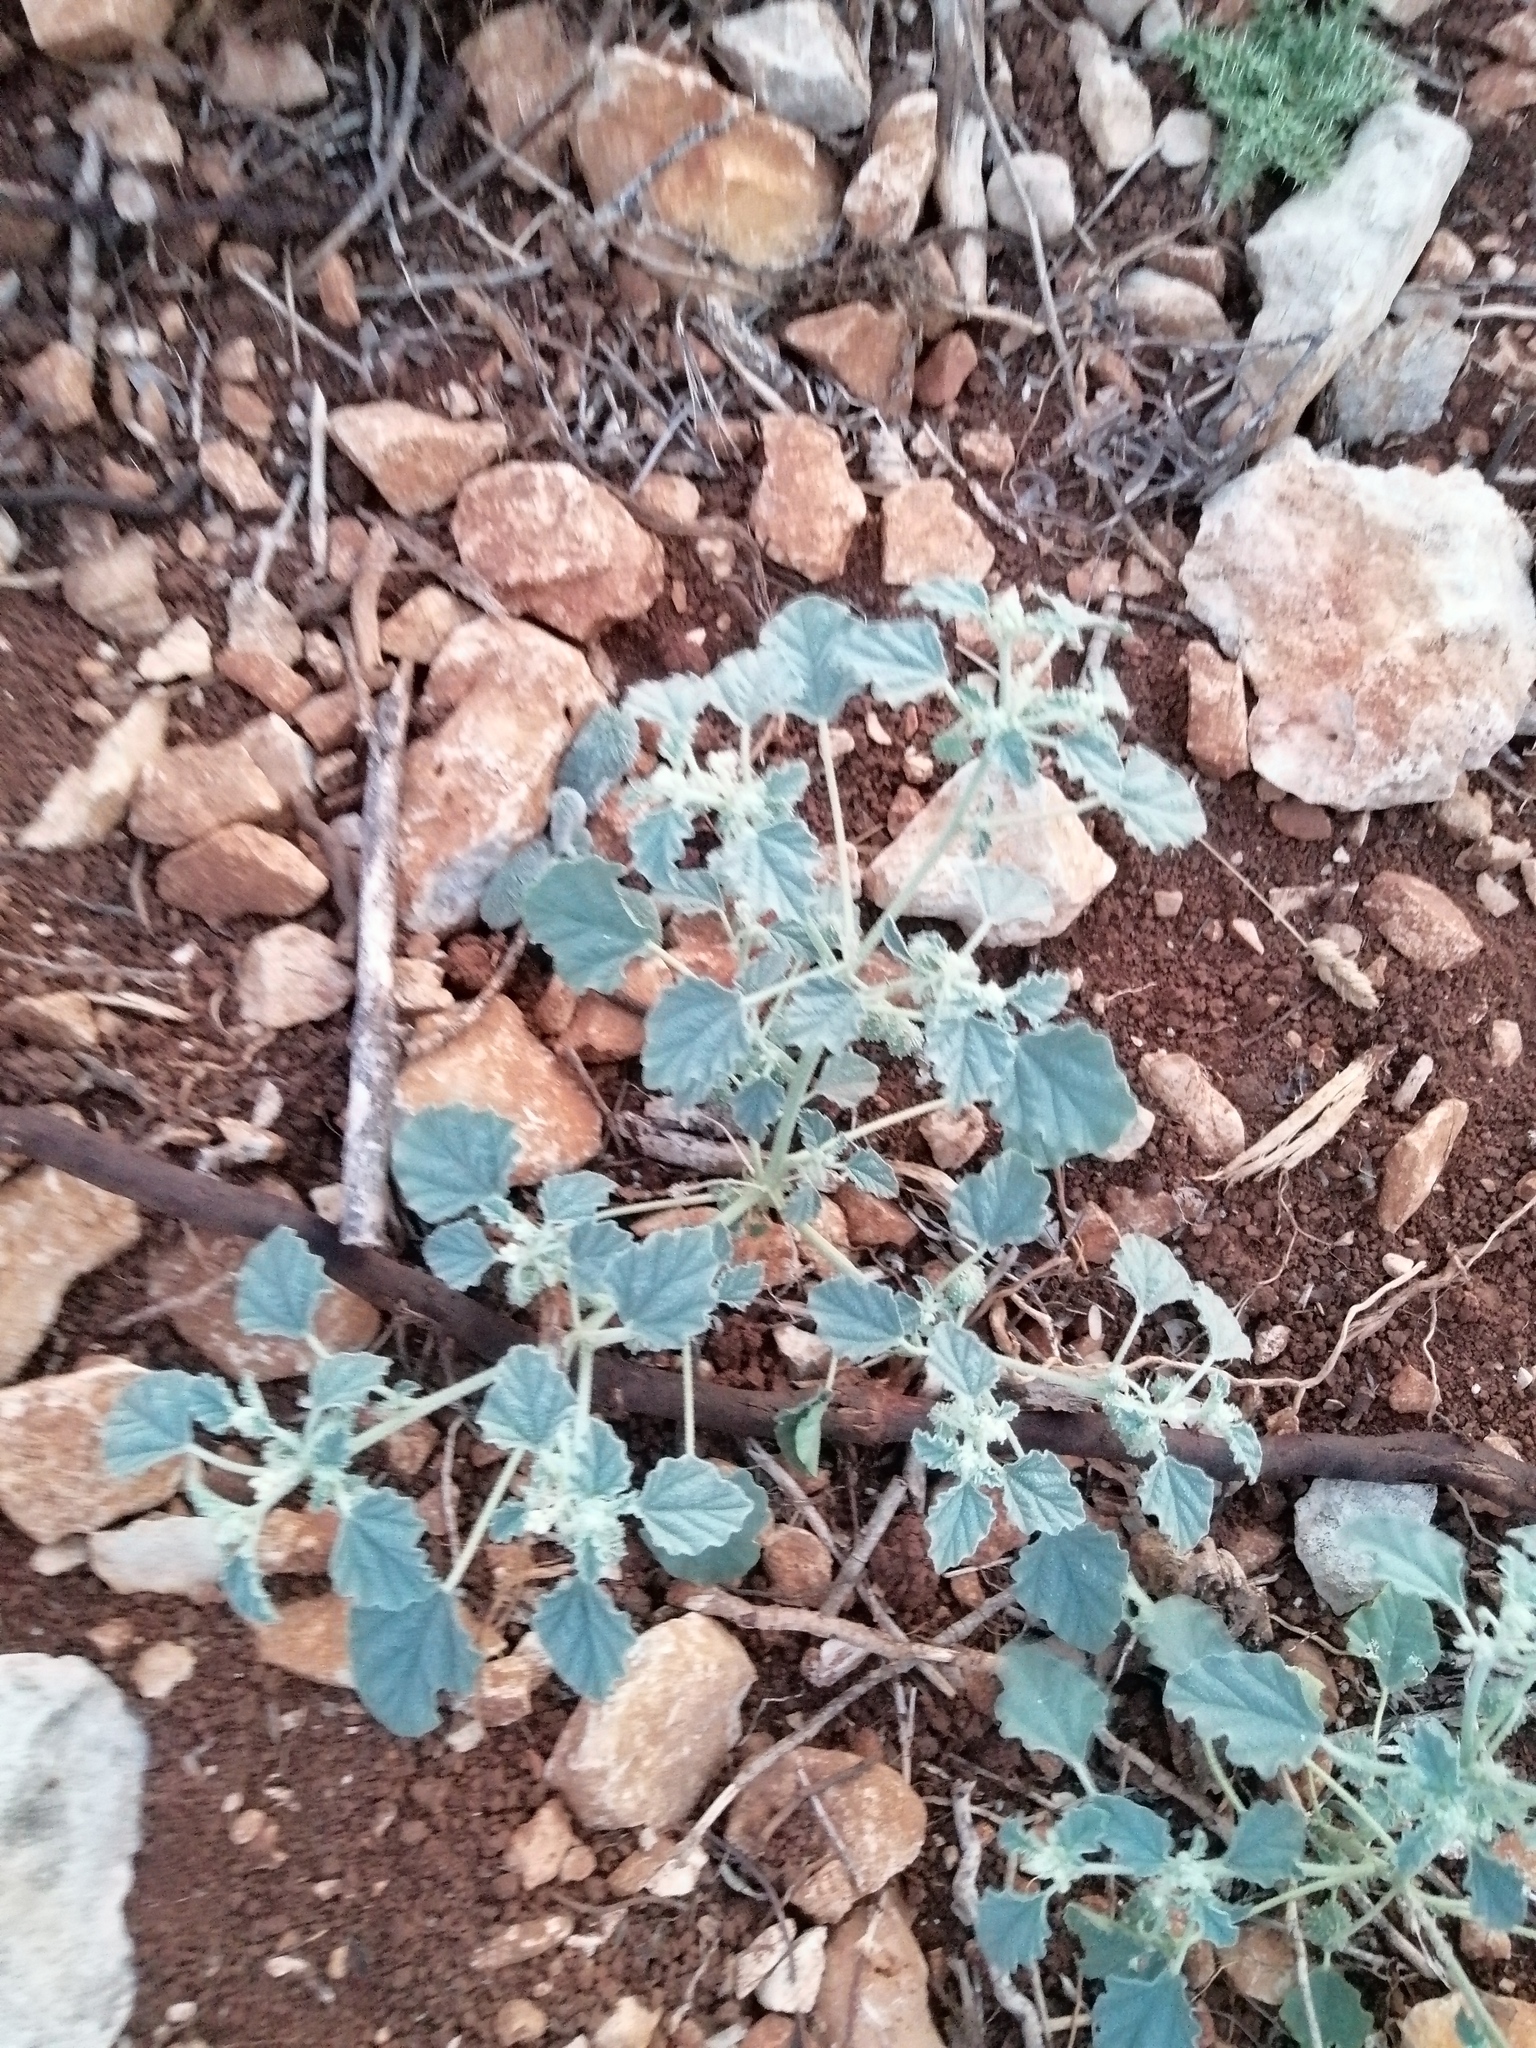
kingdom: Plantae
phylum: Tracheophyta
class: Magnoliopsida
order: Malpighiales
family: Euphorbiaceae
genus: Chrozophora
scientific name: Chrozophora tinctoria
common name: Dyer's litmus
